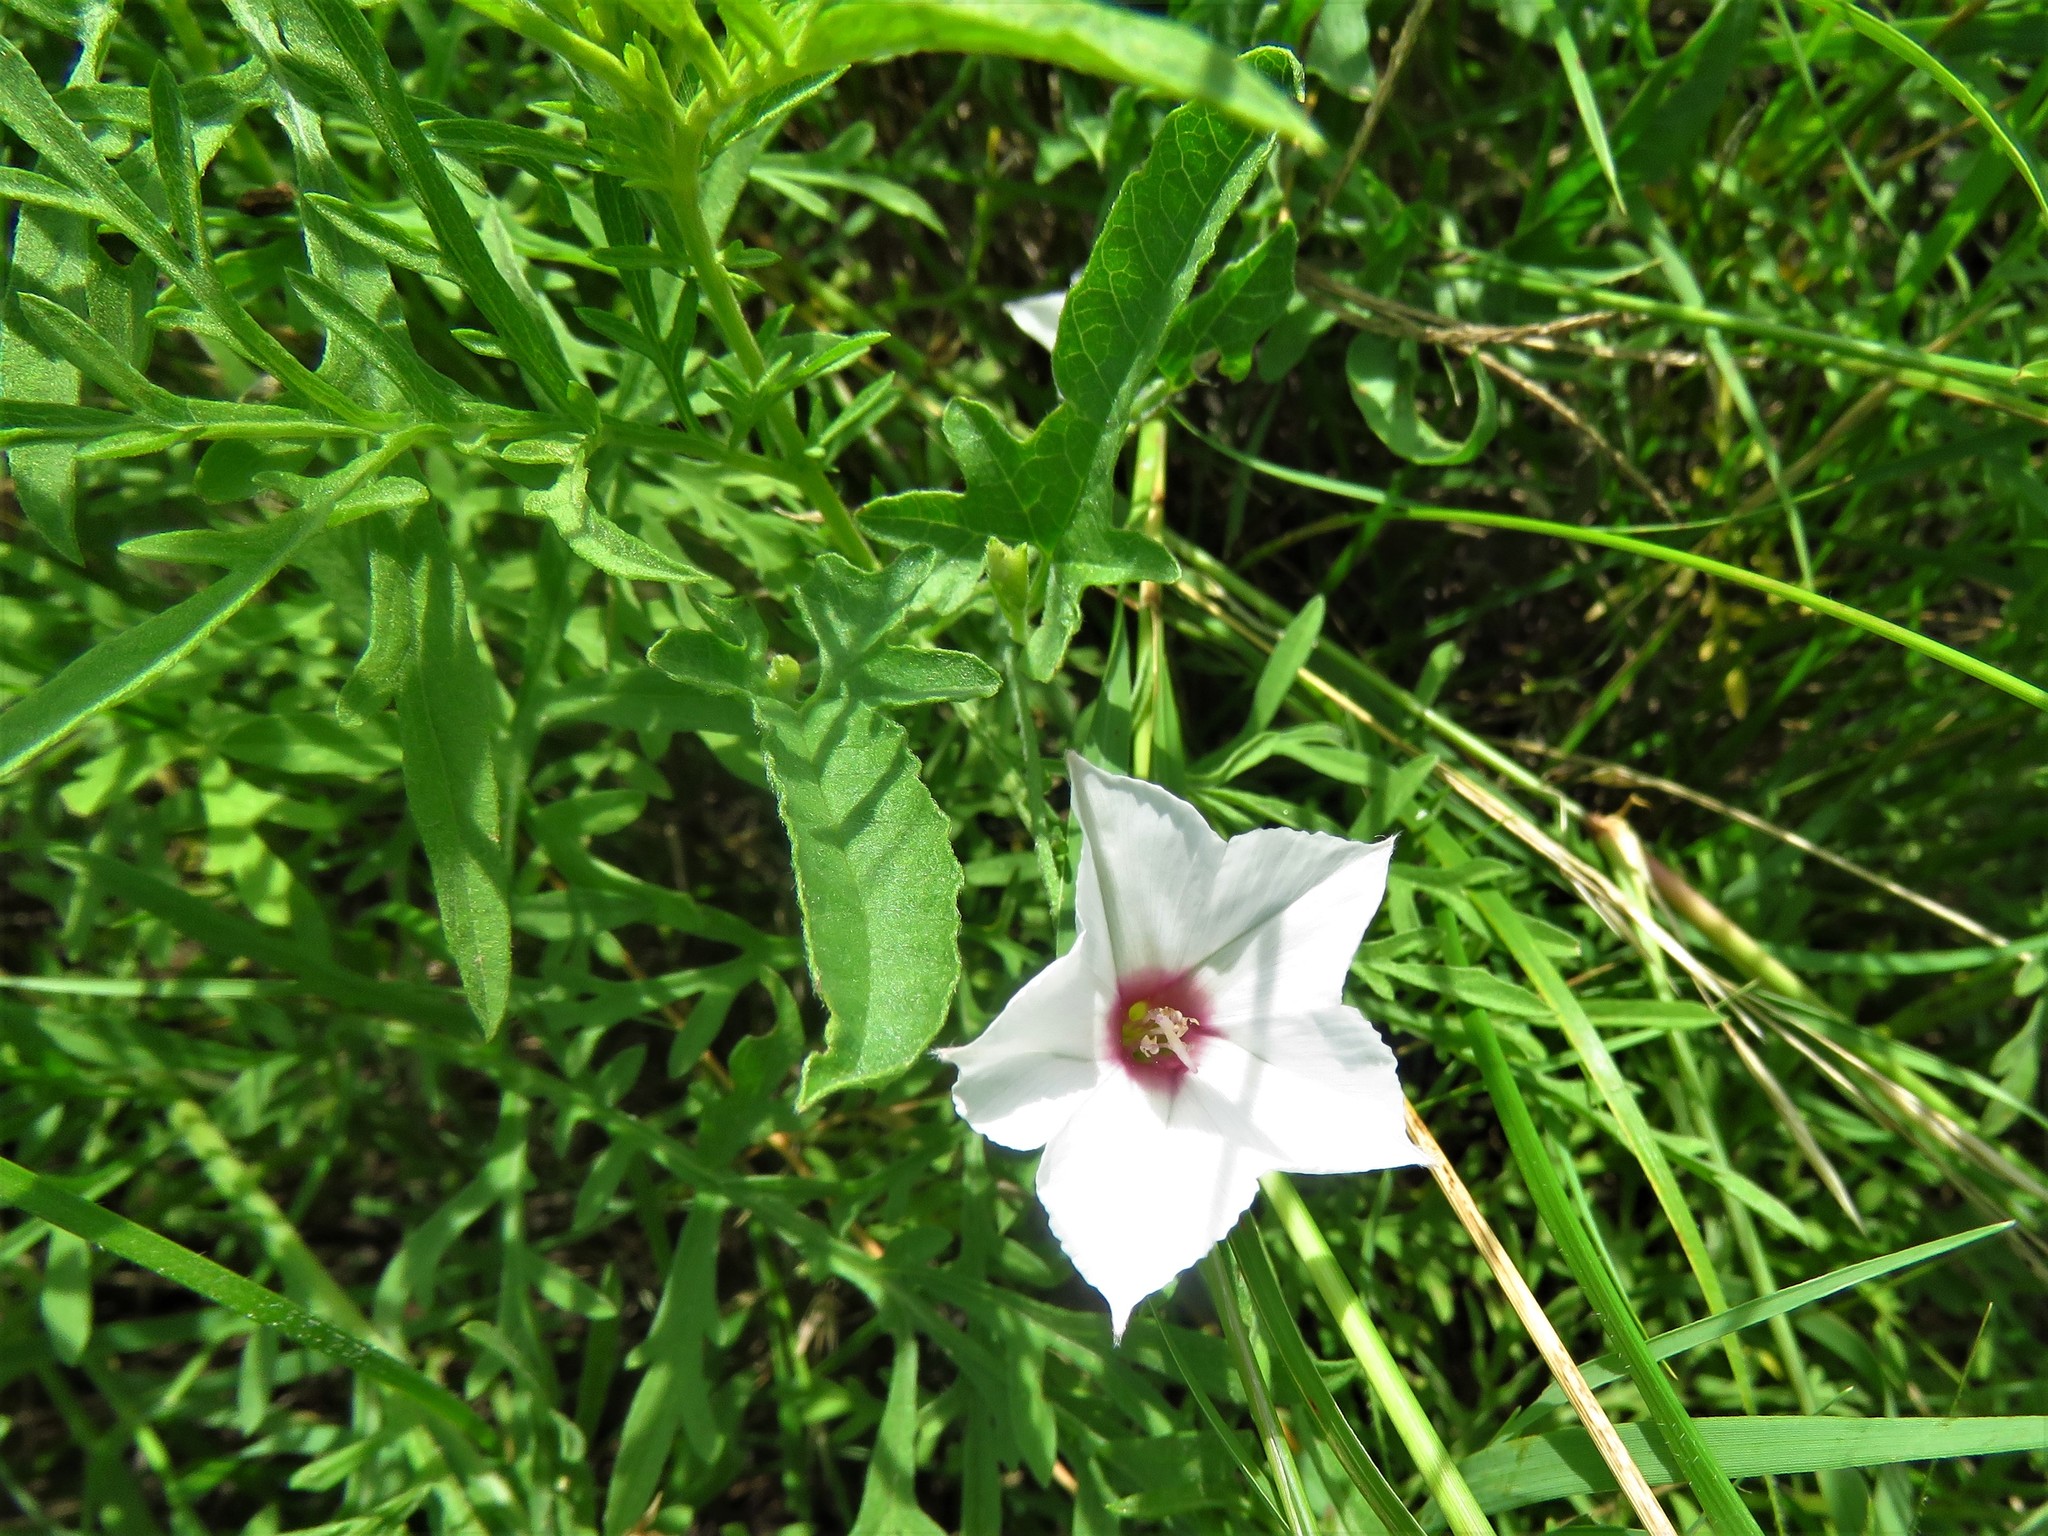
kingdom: Plantae
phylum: Tracheophyta
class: Magnoliopsida
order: Solanales
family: Convolvulaceae
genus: Convolvulus
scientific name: Convolvulus equitans
